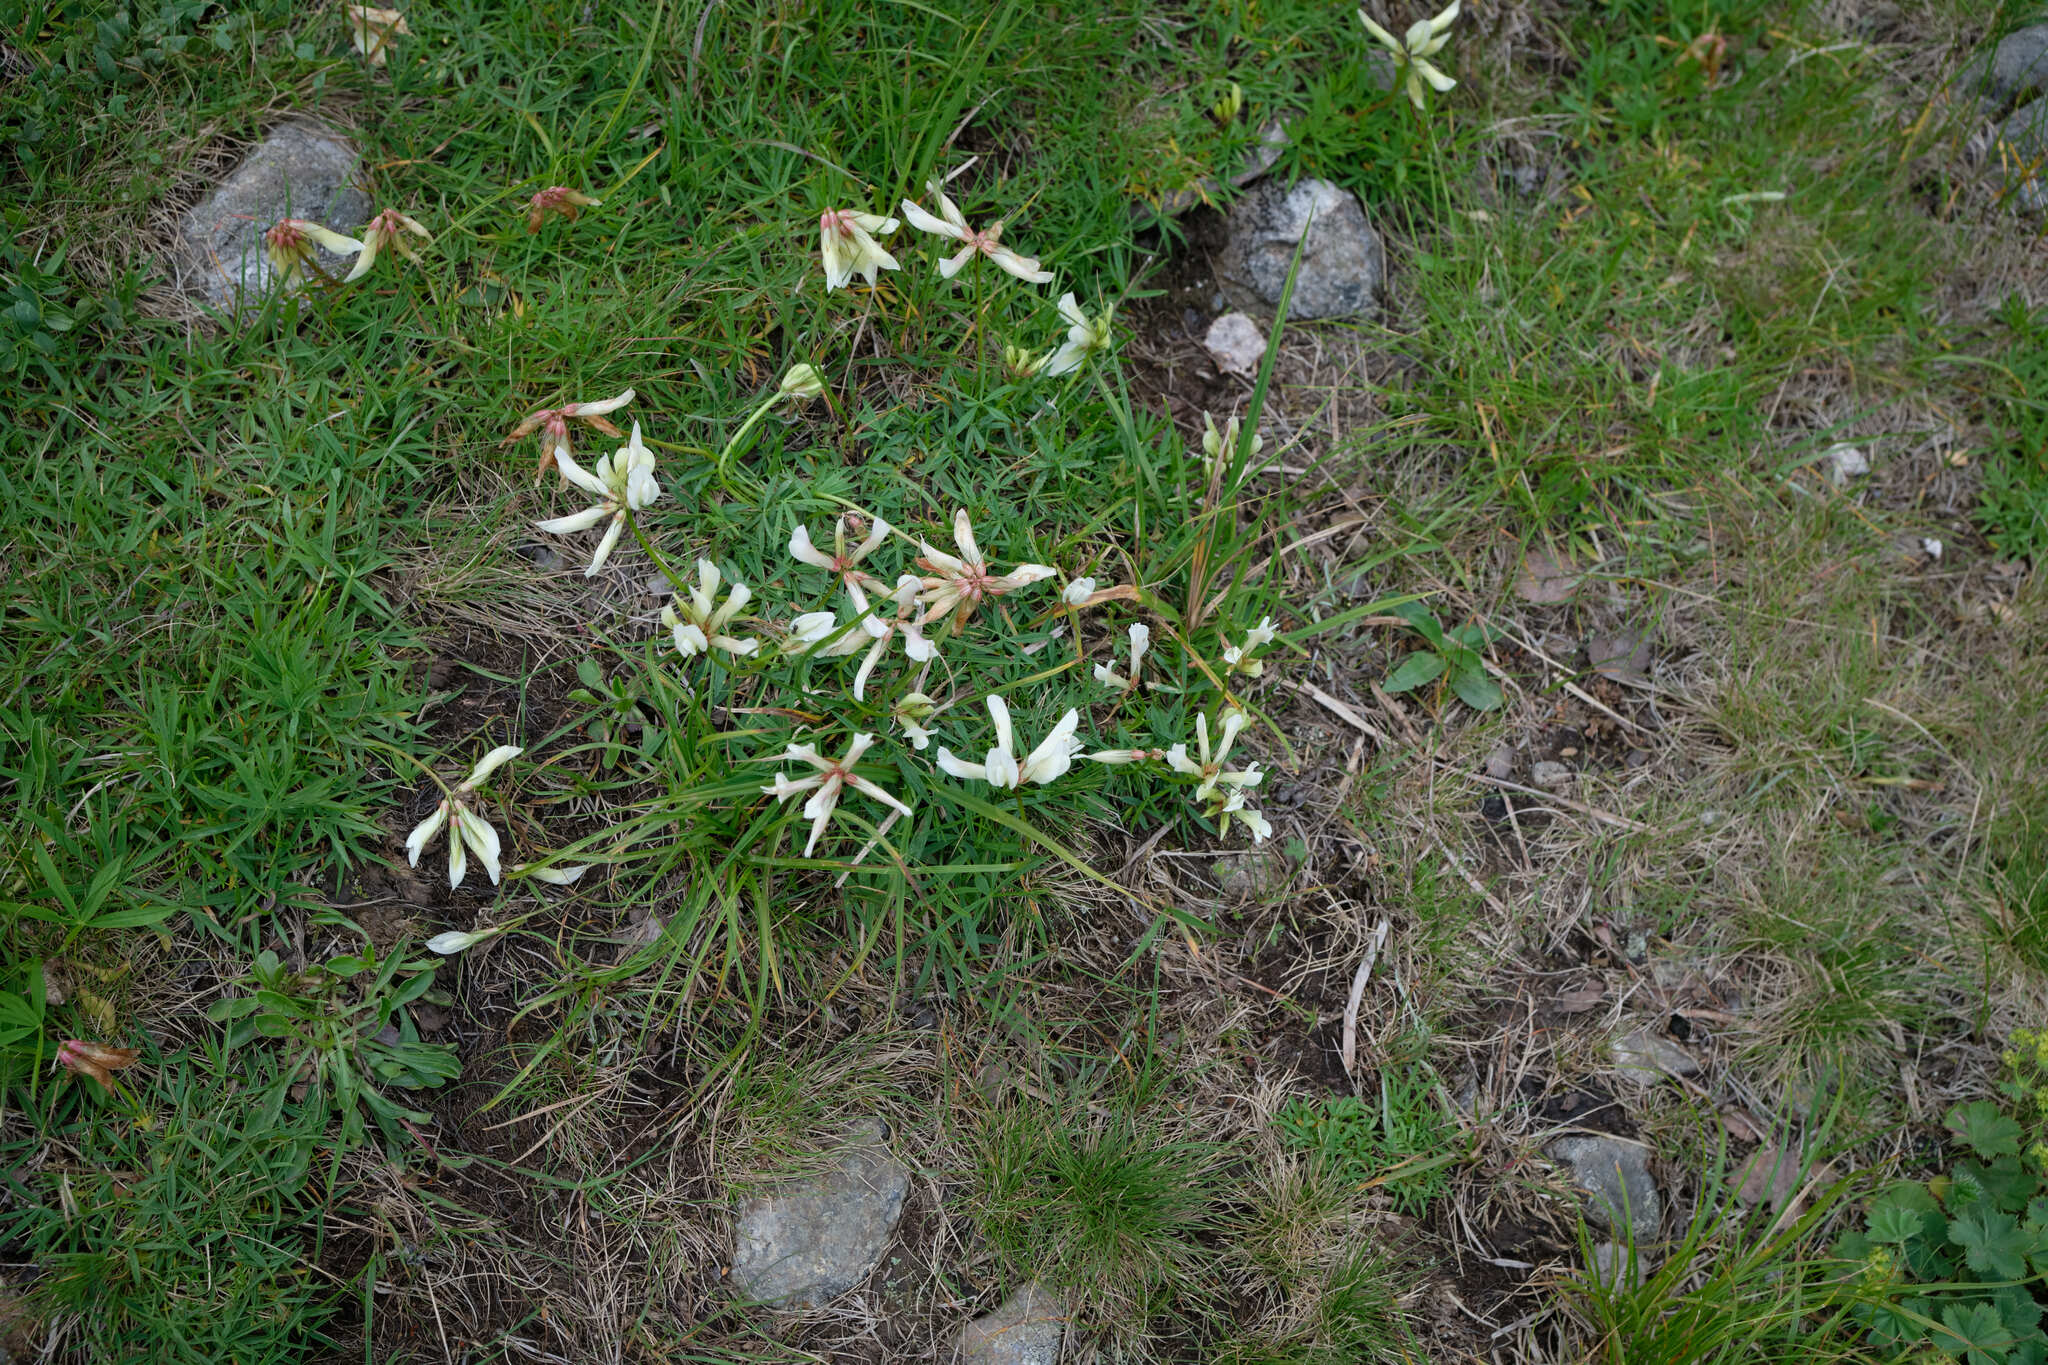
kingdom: Plantae
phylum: Tracheophyta
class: Magnoliopsida
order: Fabales
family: Fabaceae
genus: Trifolium
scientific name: Trifolium polyphyllum
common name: Many-leaf clover
